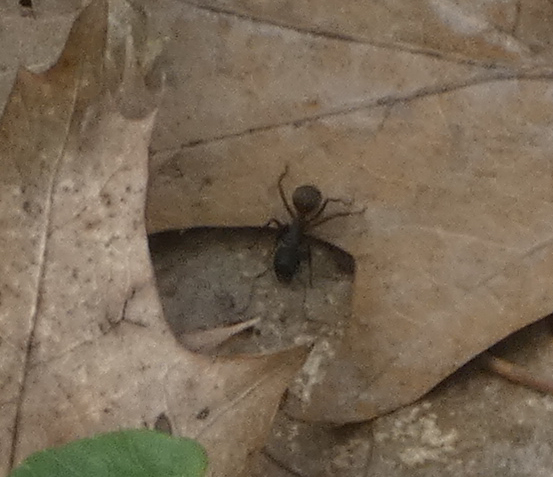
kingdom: Animalia
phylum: Arthropoda
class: Insecta
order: Hymenoptera
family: Formicidae
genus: Camponotus
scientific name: Camponotus chromaiodes
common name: Red carpenter ant
